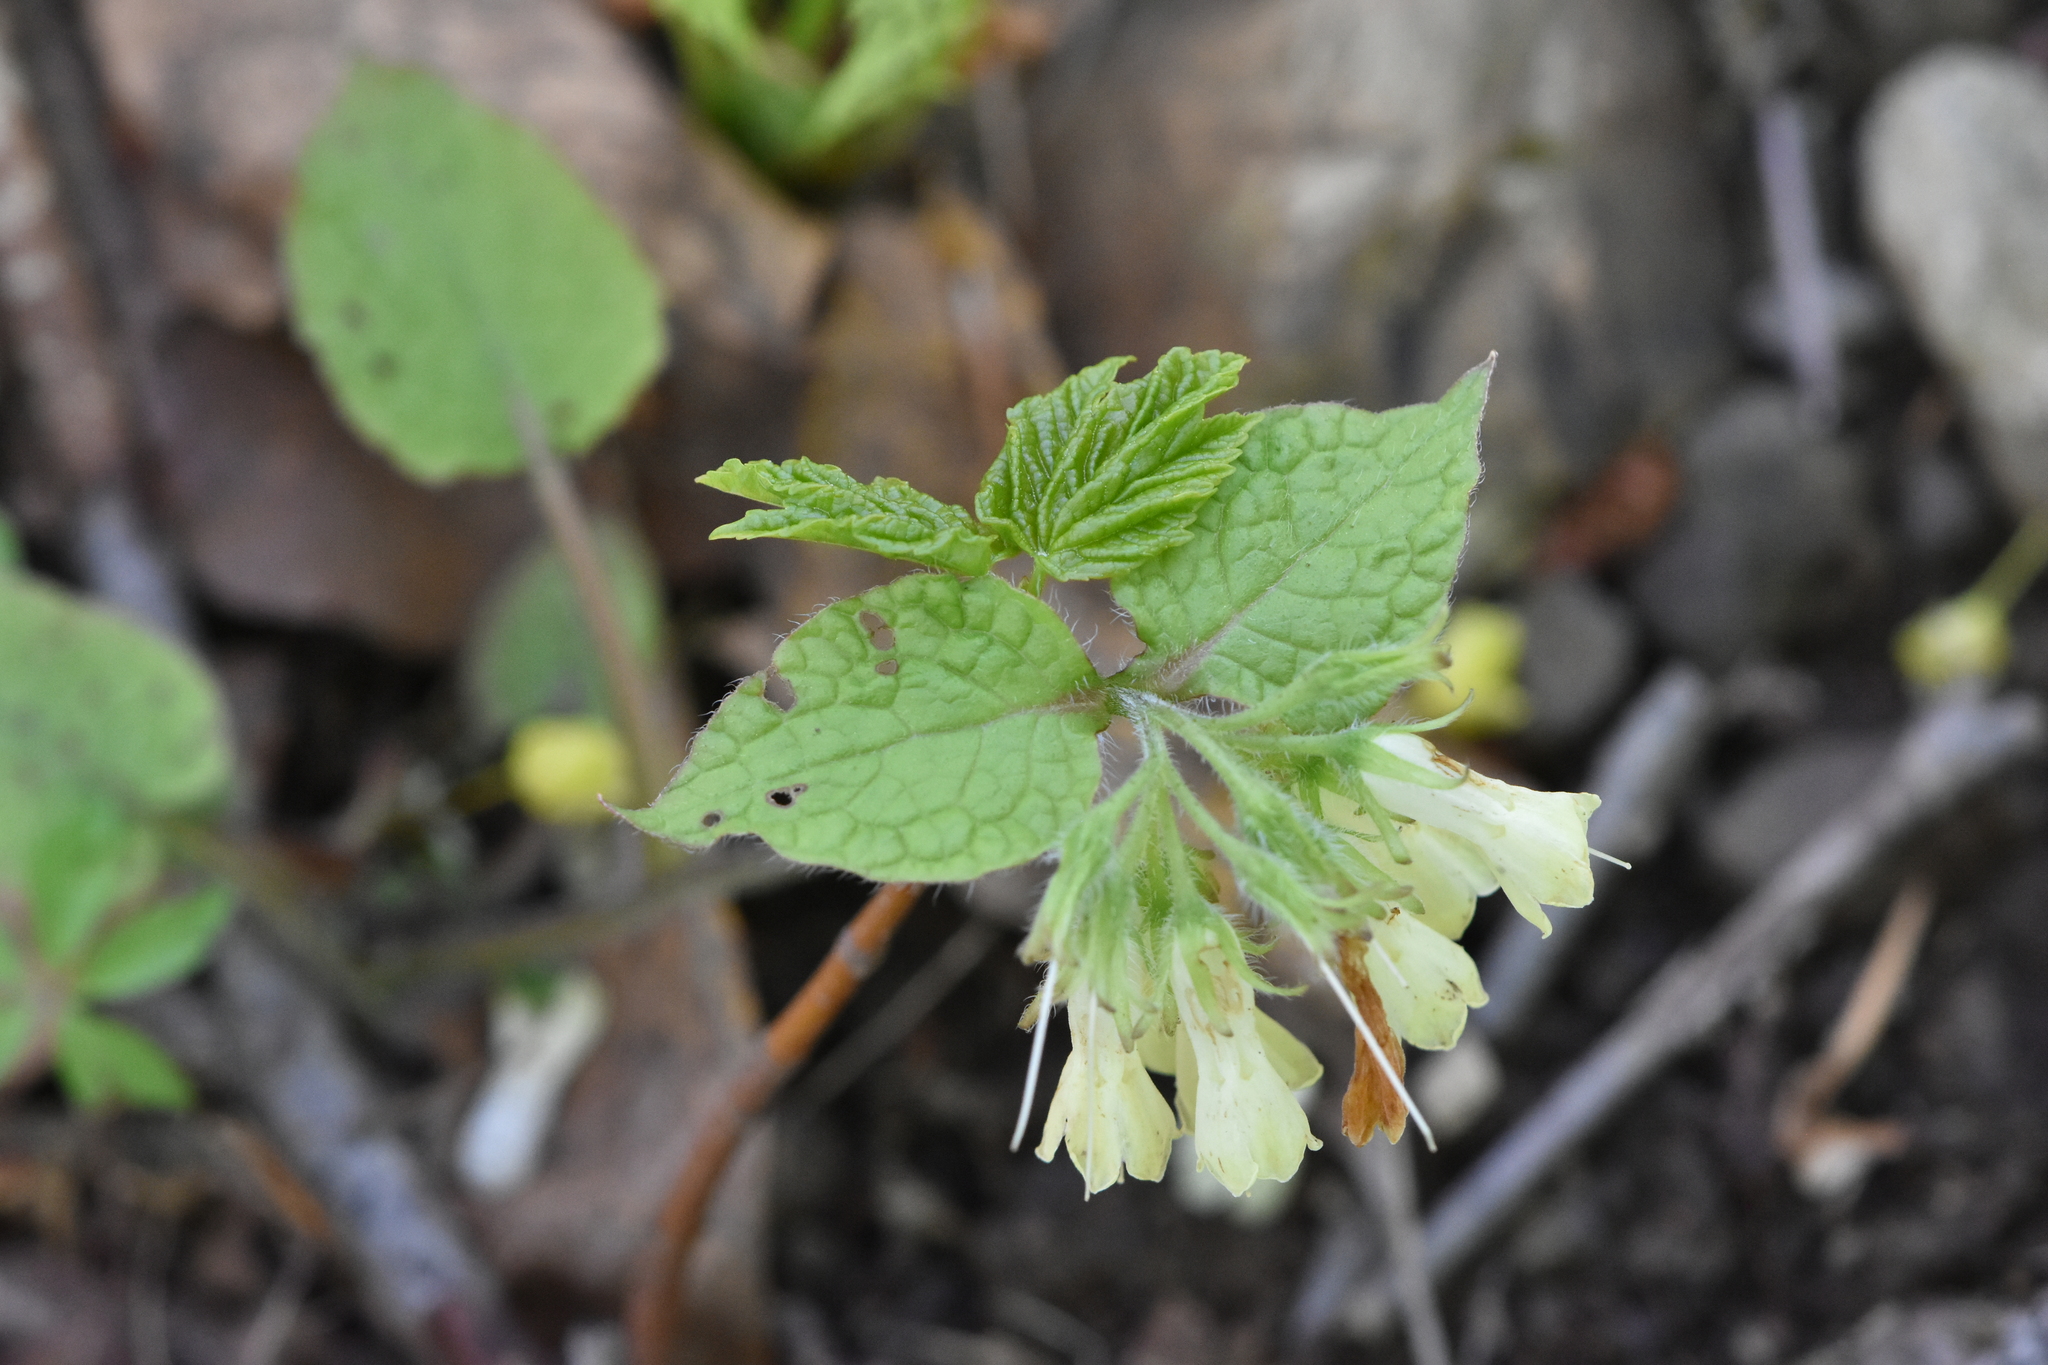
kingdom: Plantae
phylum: Tracheophyta
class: Magnoliopsida
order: Boraginales
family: Boraginaceae
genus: Symphytum
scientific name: Symphytum grandiflorum
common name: Creeping comfrey
